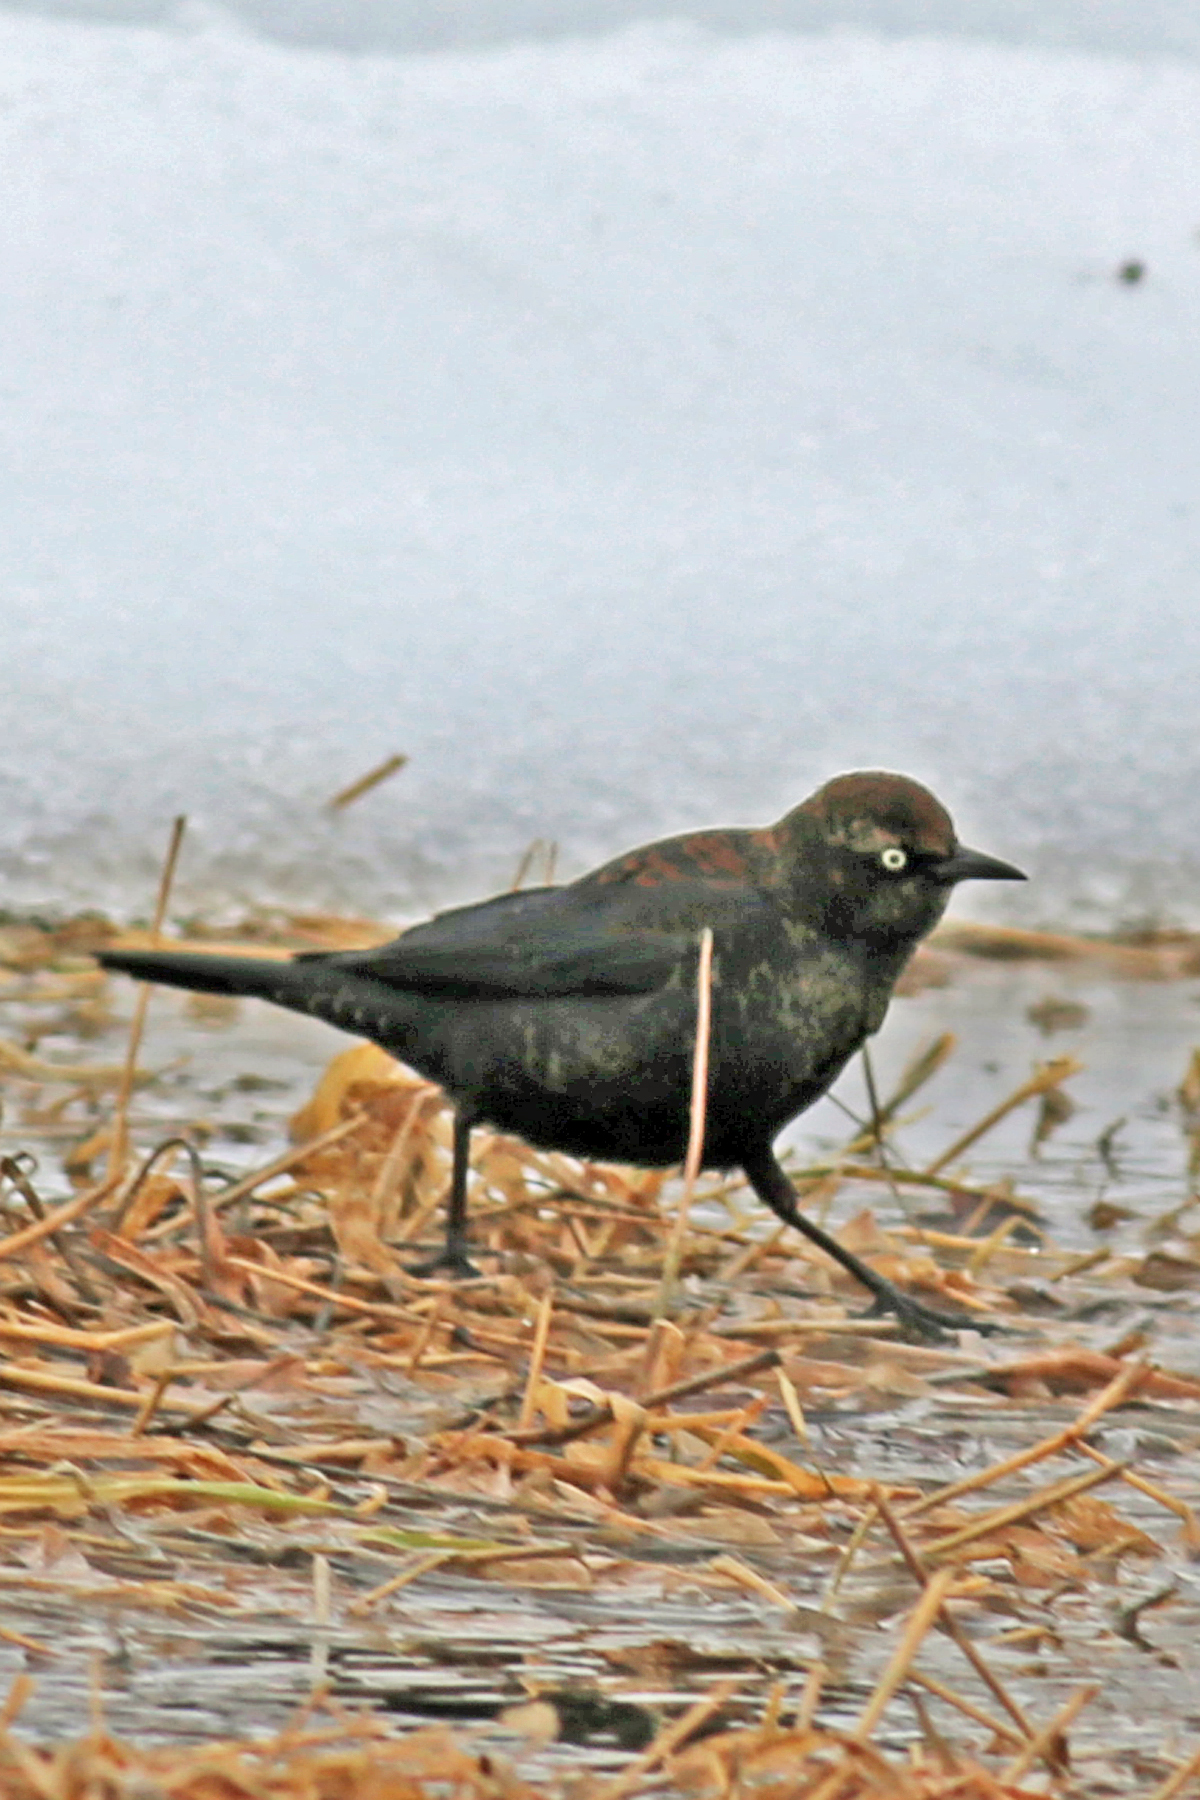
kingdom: Animalia
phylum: Chordata
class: Aves
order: Passeriformes
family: Icteridae
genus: Euphagus
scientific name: Euphagus carolinus
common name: Rusty blackbird
